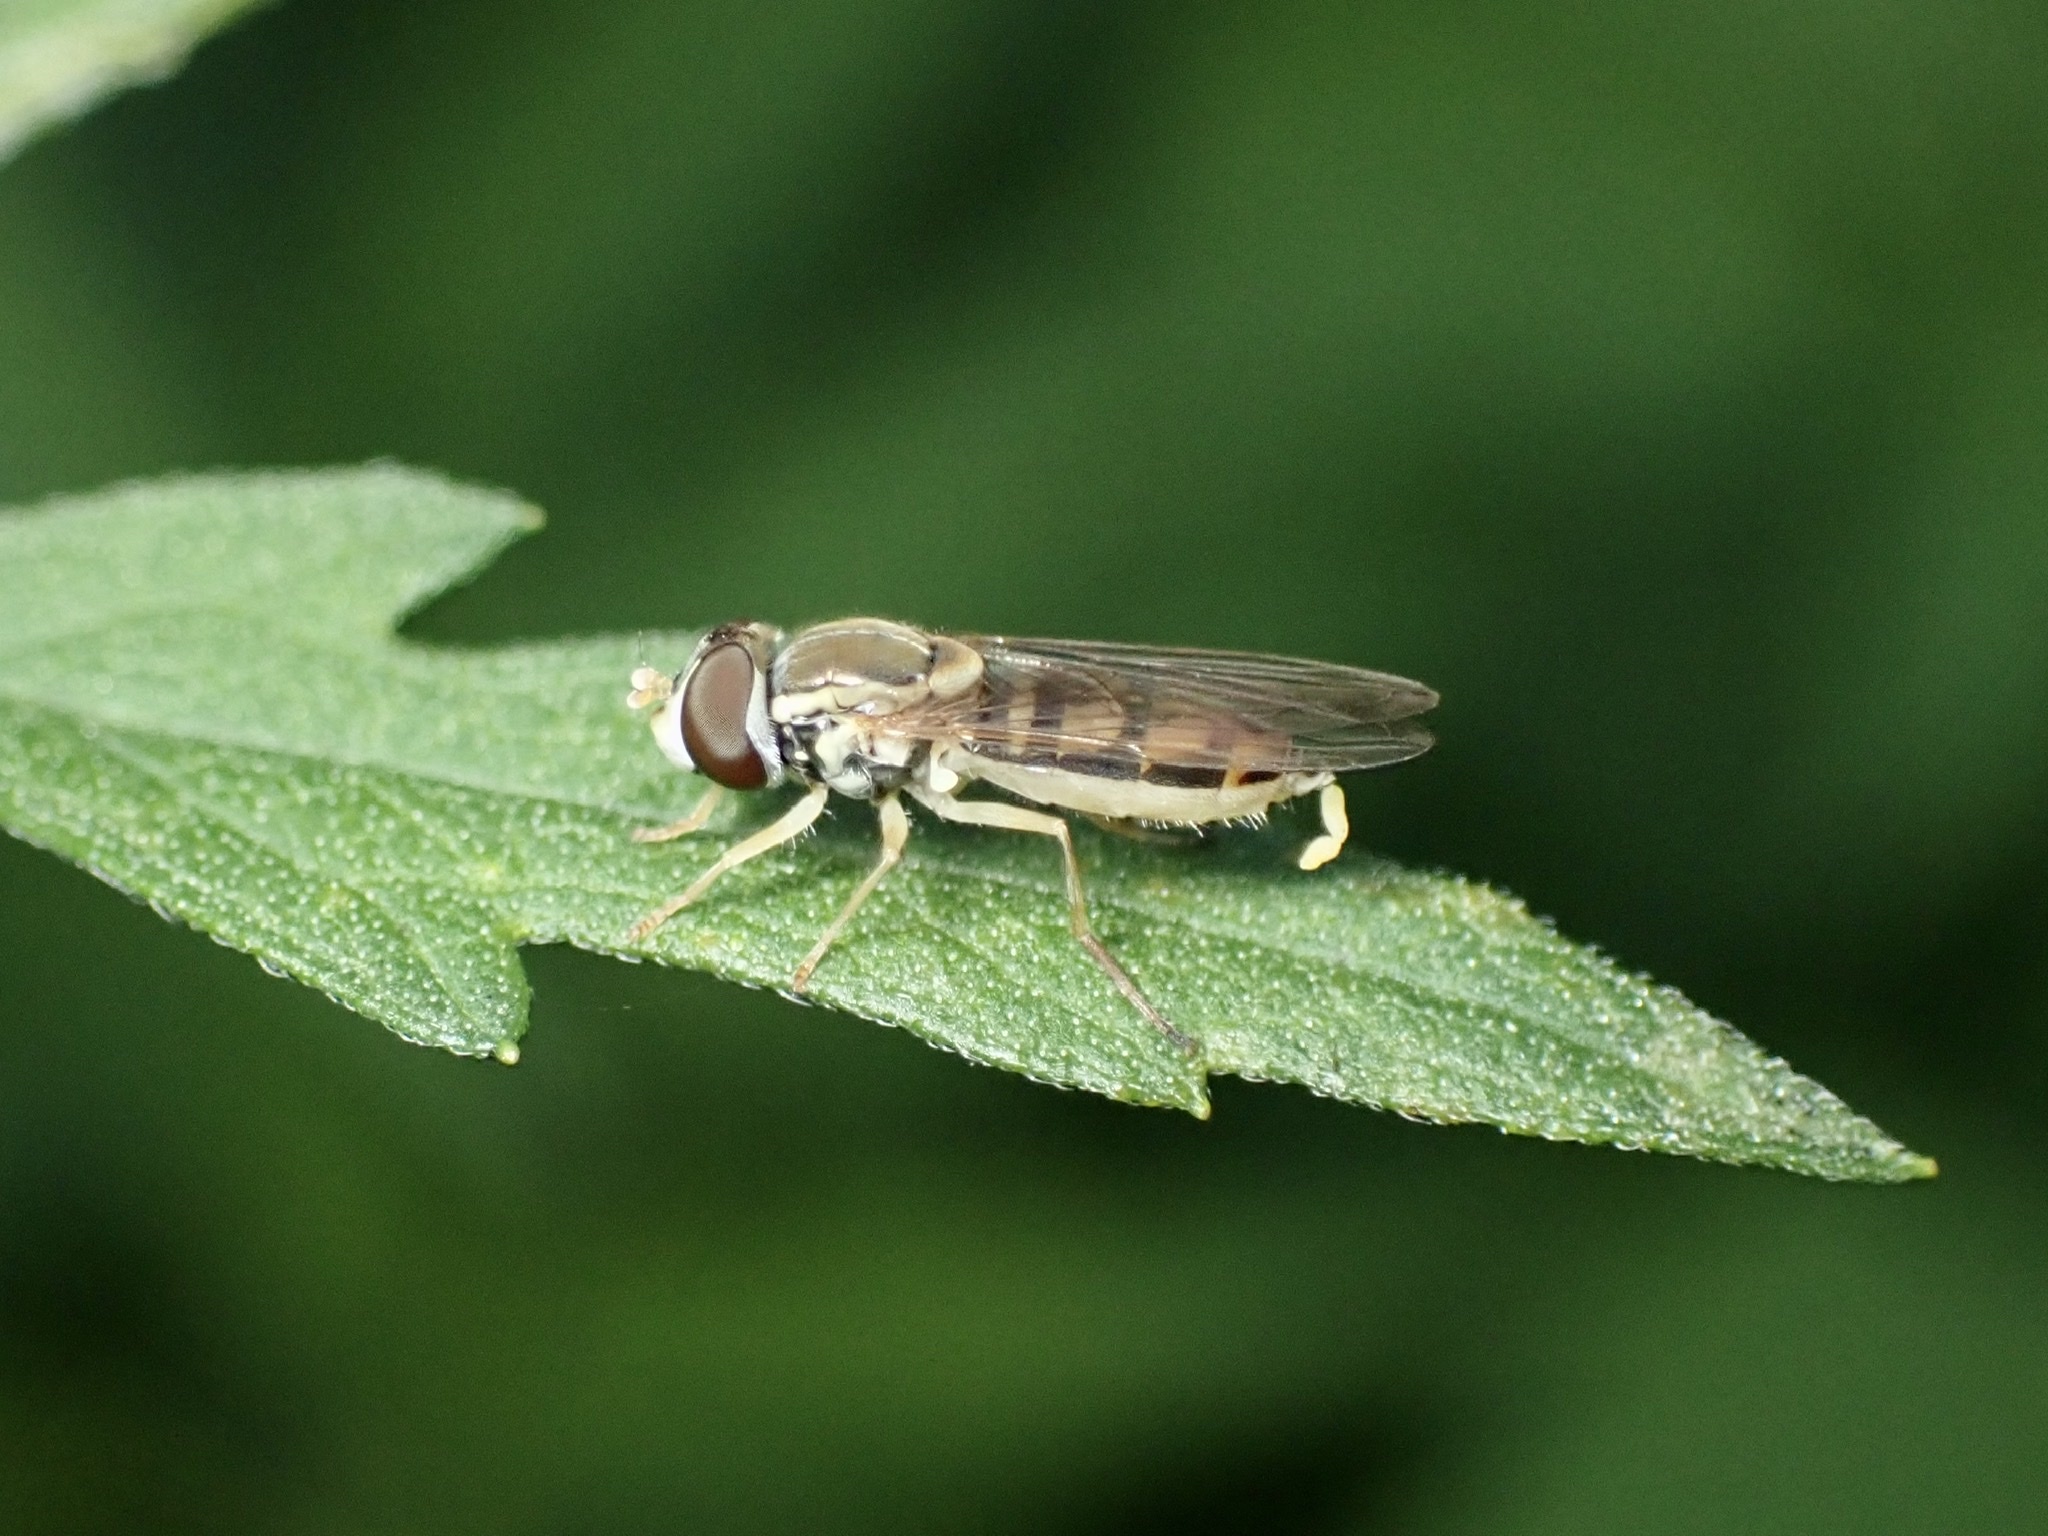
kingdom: Animalia
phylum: Arthropoda
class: Insecta
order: Diptera
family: Syrphidae
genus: Toxomerus
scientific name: Toxomerus marginatus
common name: Syrphid fly
